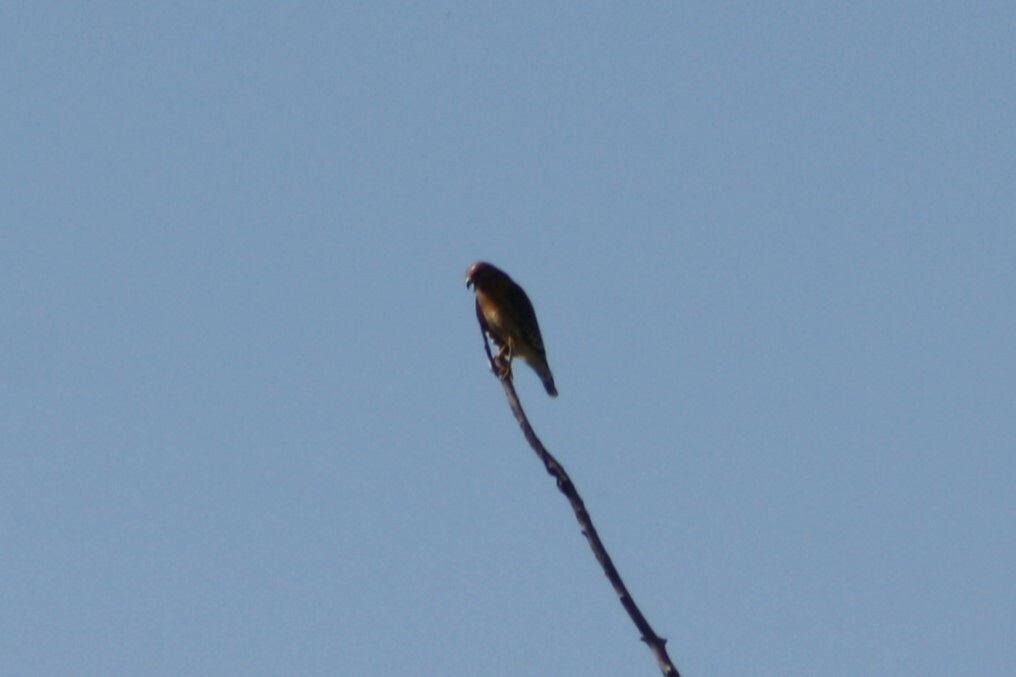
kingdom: Animalia
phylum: Chordata
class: Aves
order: Accipitriformes
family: Accipitridae
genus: Buteo
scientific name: Buteo lineatus
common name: Red-shouldered hawk
